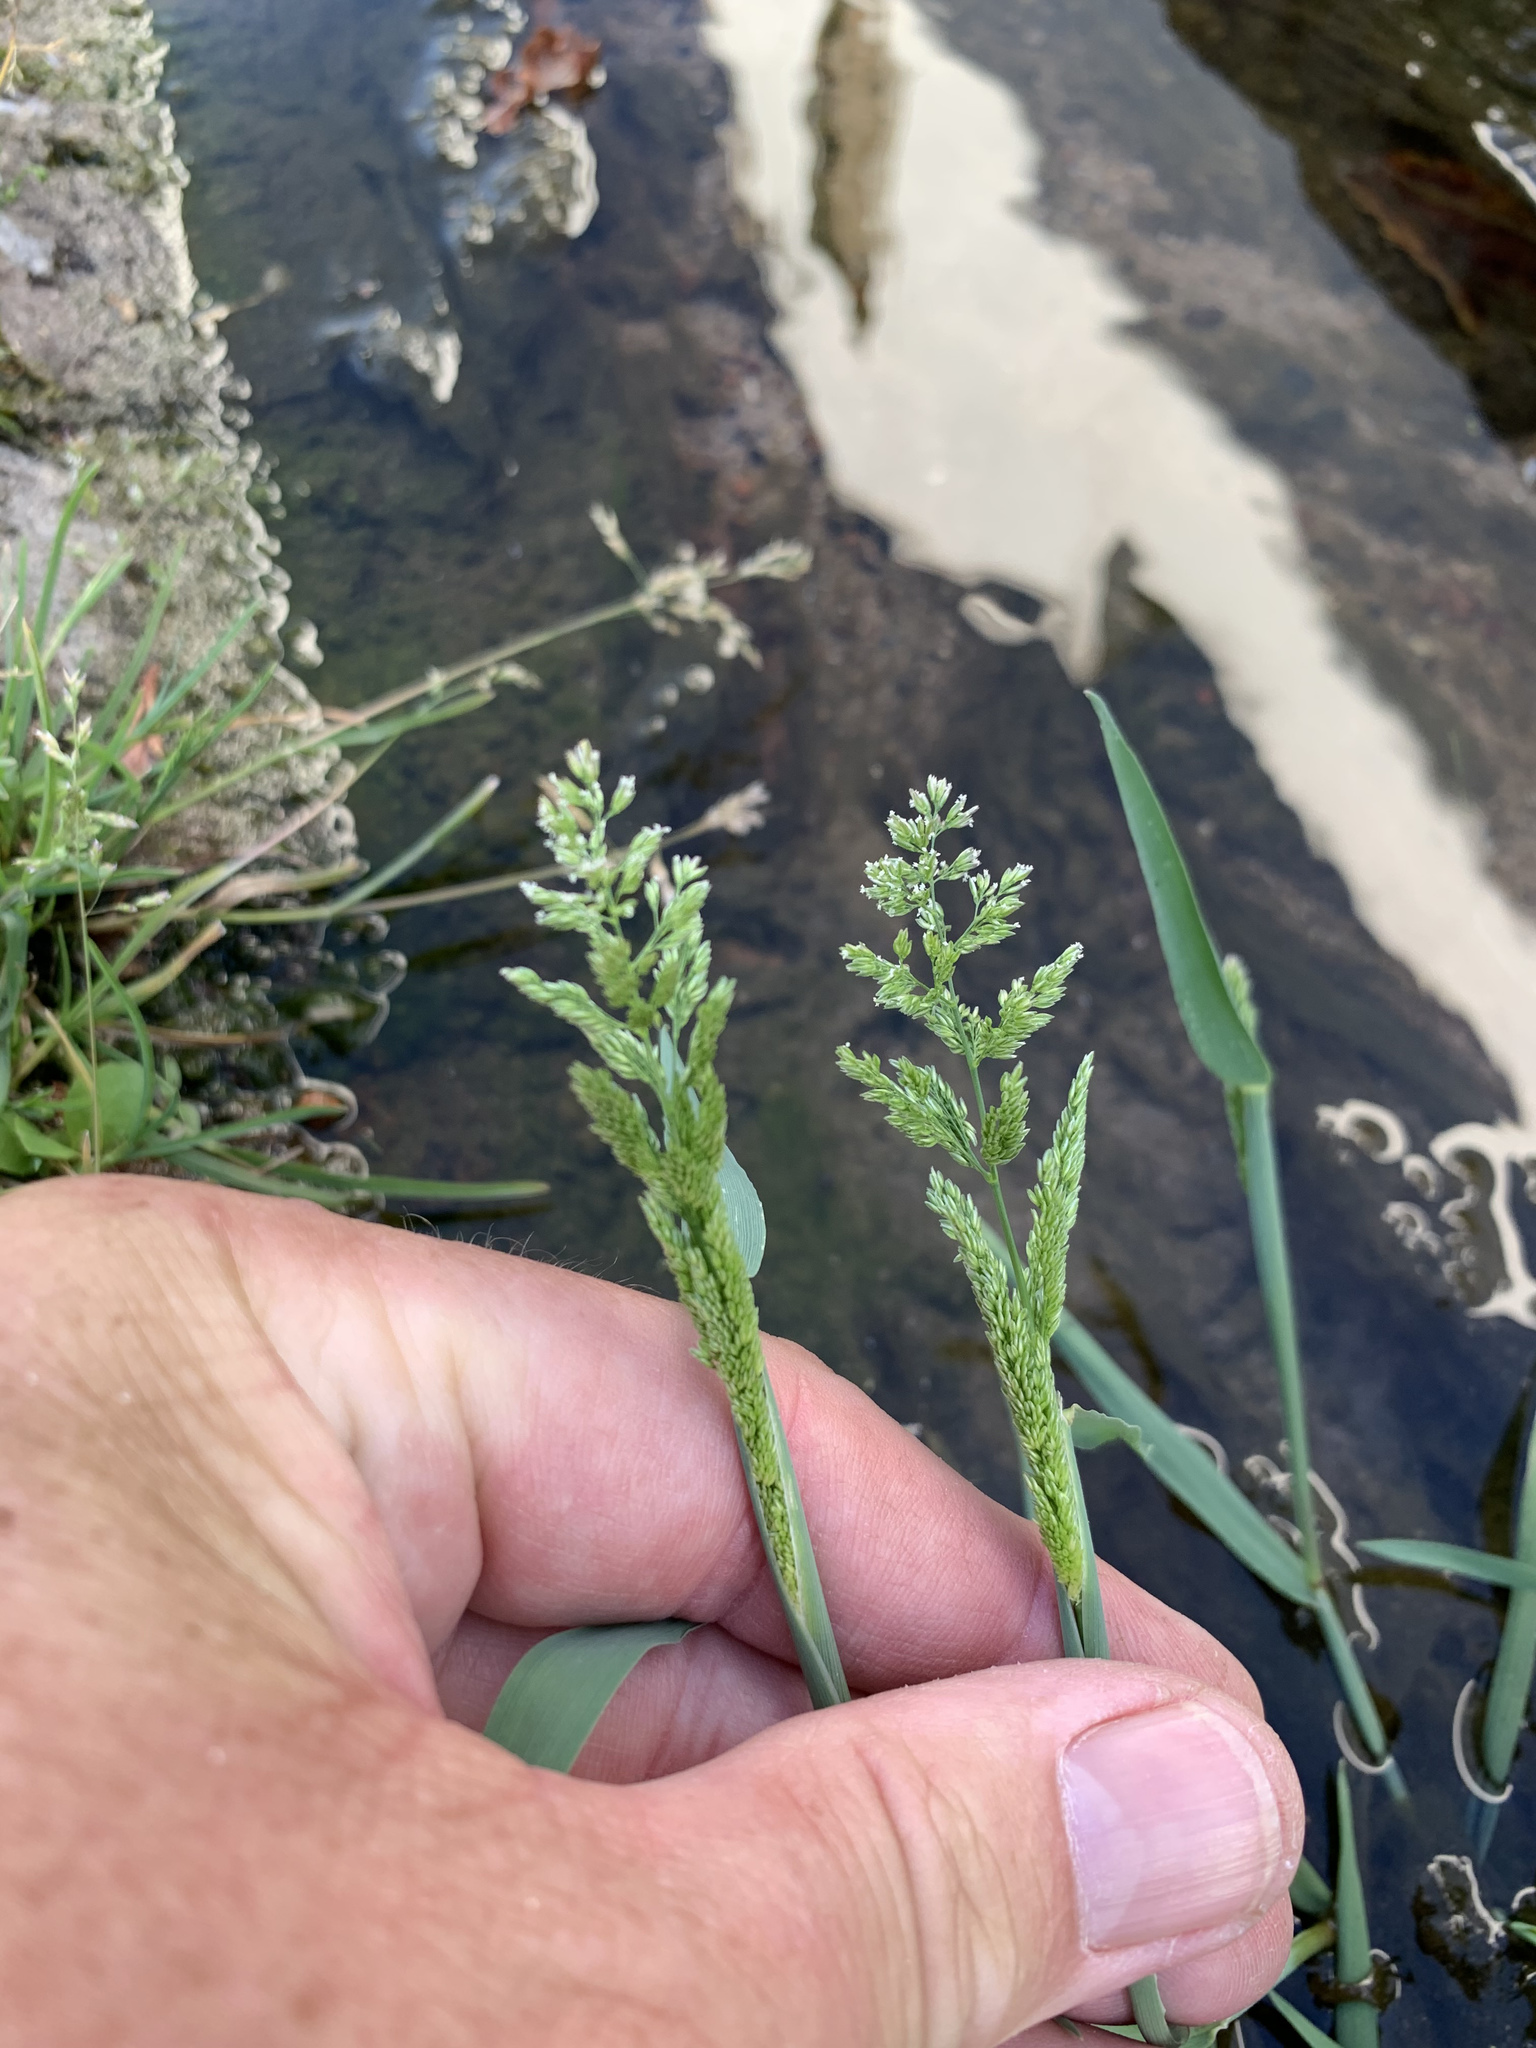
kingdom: Plantae
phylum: Tracheophyta
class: Liliopsida
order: Poales
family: Poaceae
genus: Polypogon
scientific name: Polypogon viridis
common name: Water bent
